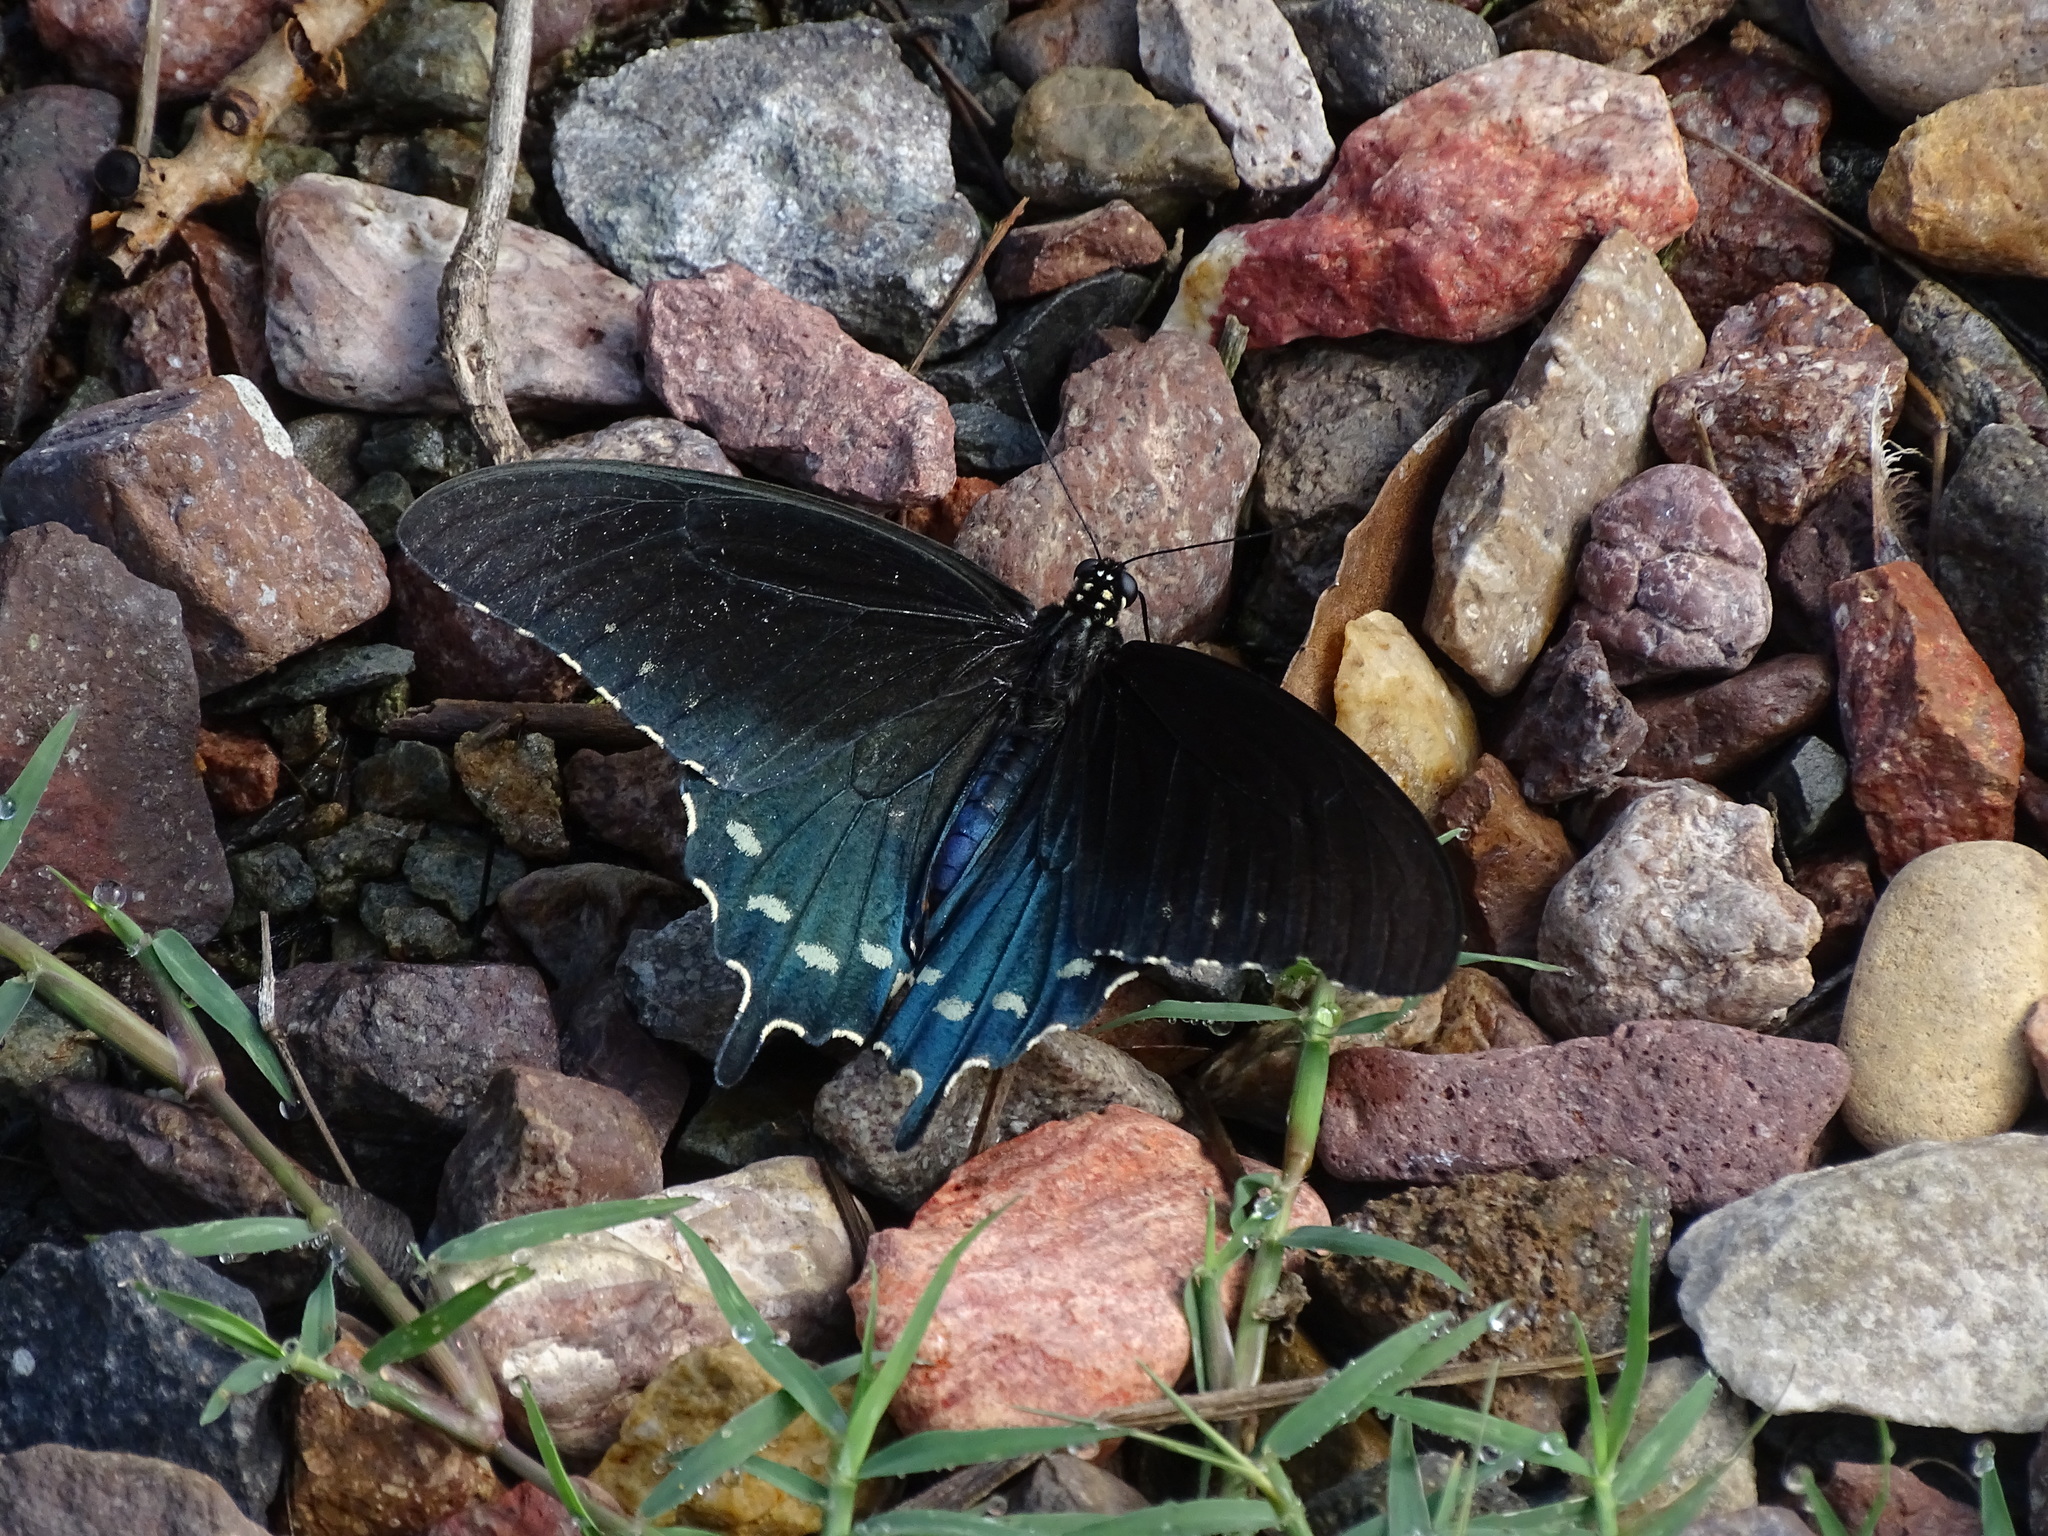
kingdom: Animalia
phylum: Arthropoda
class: Insecta
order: Lepidoptera
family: Papilionidae
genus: Battus
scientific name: Battus philenor
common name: Pipevine swallowtail
